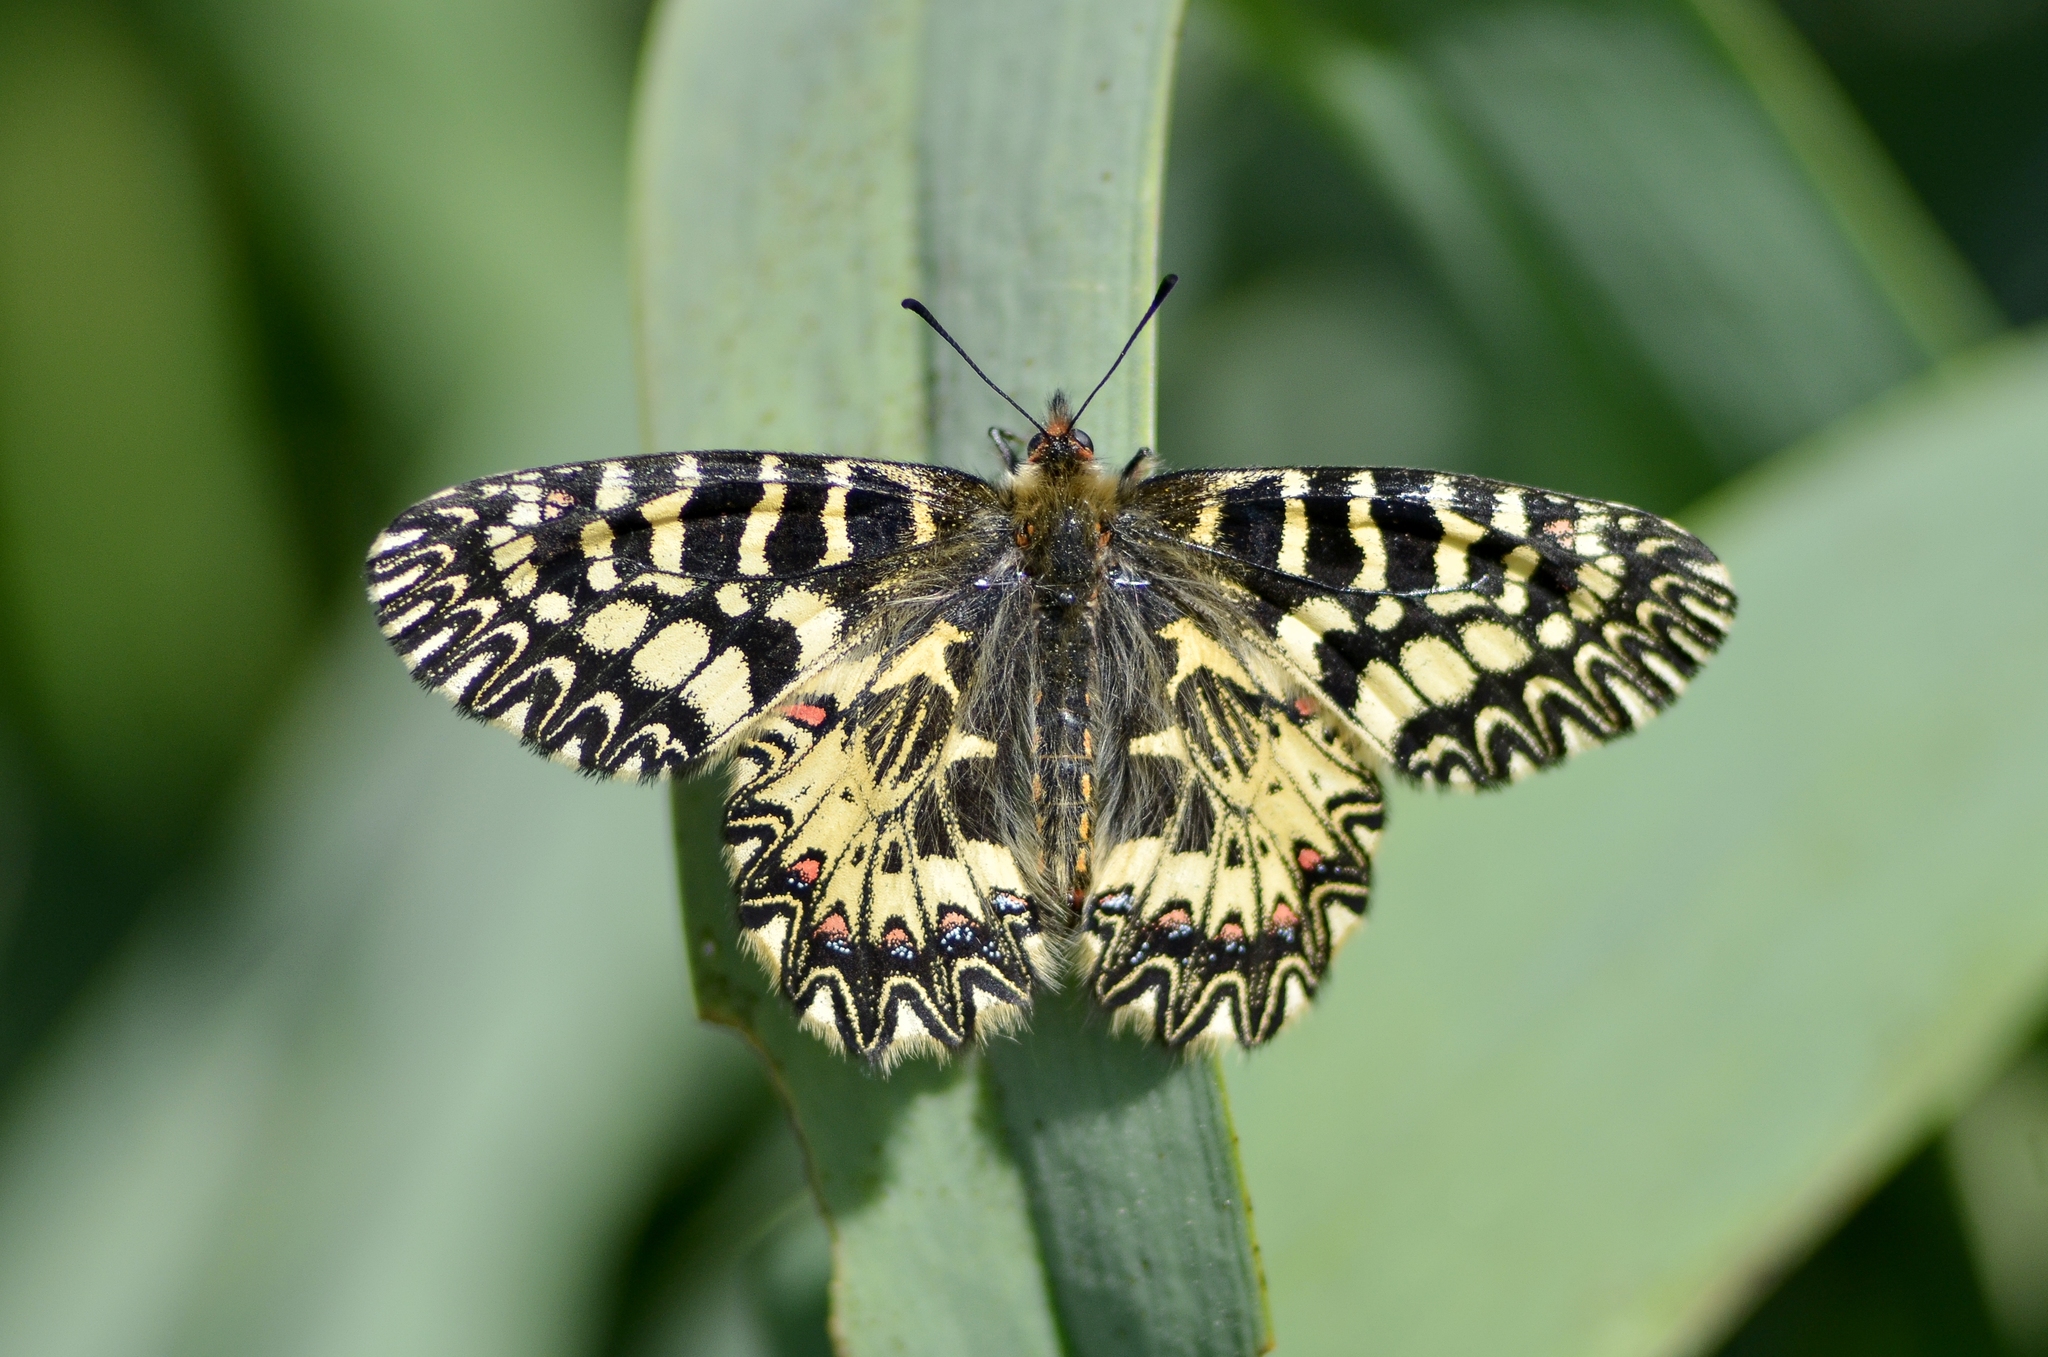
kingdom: Animalia
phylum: Arthropoda
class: Insecta
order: Lepidoptera
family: Papilionidae
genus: Zerynthia
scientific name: Zerynthia cassandra
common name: Italian festoon
